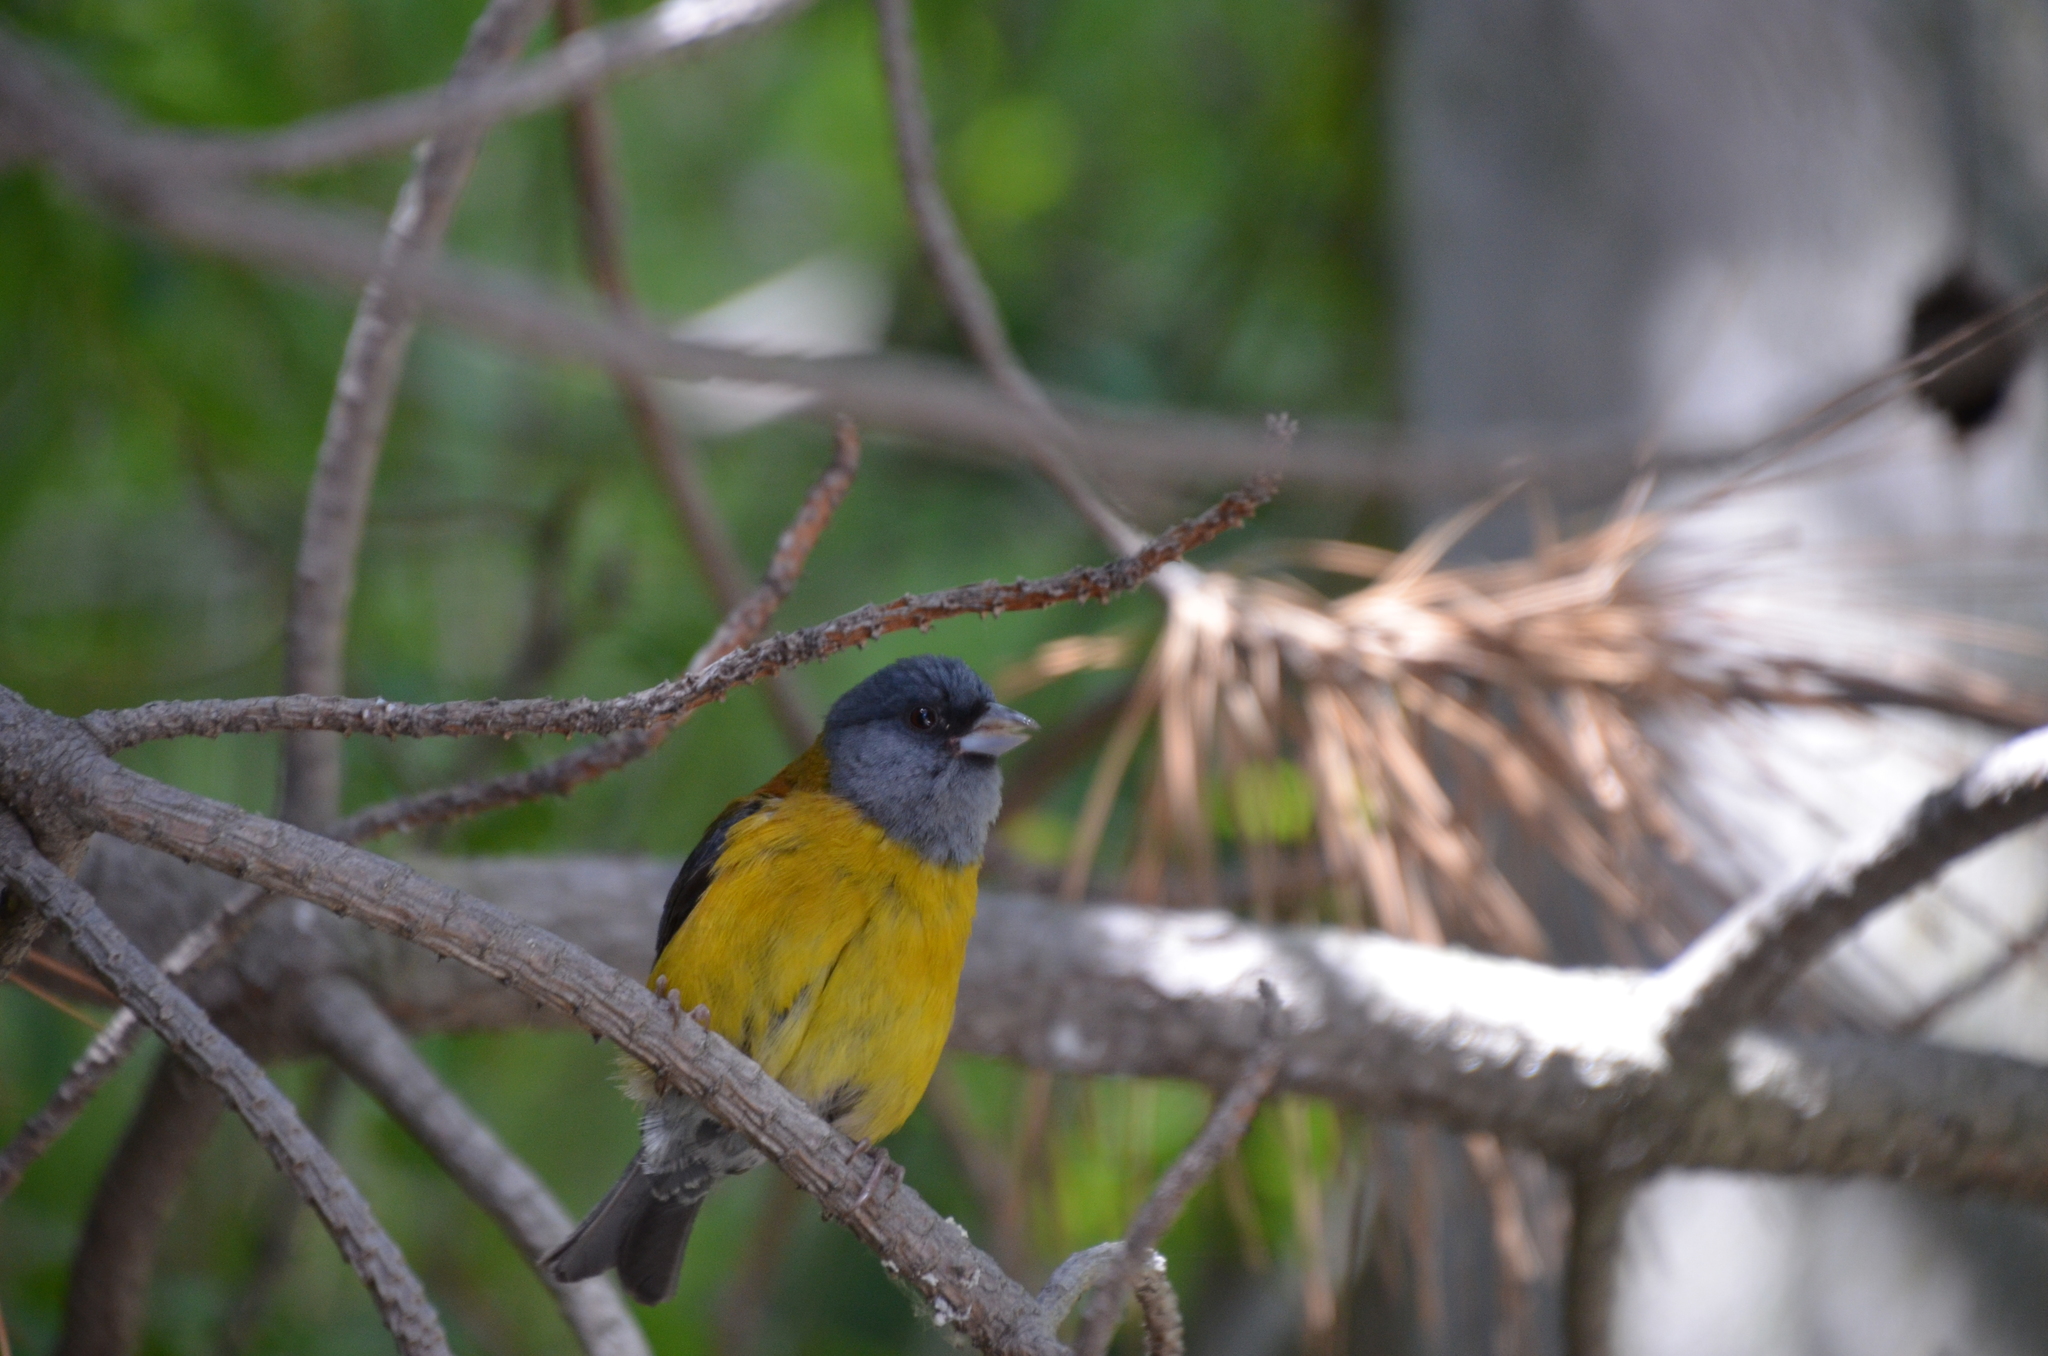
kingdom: Animalia
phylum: Chordata
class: Aves
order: Passeriformes
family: Thraupidae
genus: Phrygilus
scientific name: Phrygilus patagonicus
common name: Patagonian sierra finch
